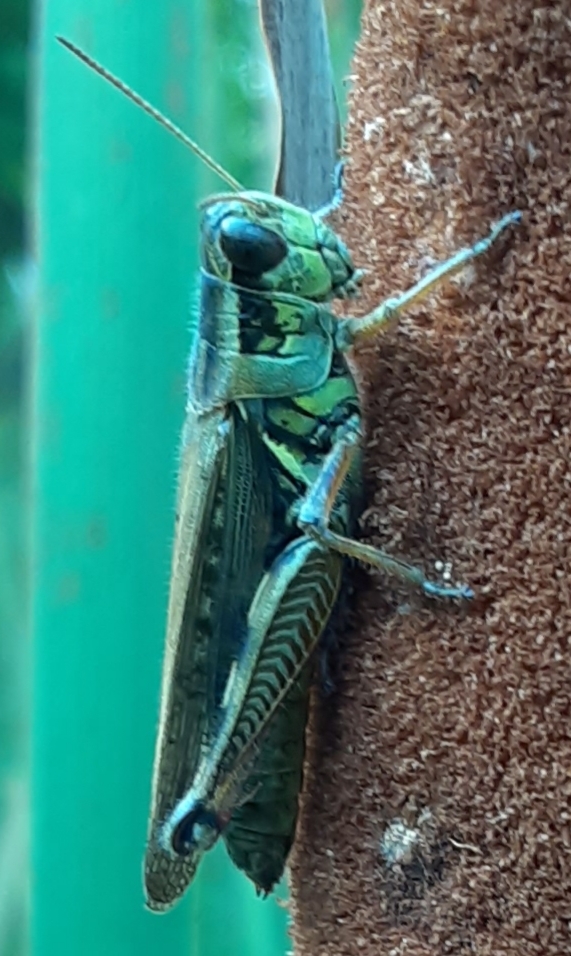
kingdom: Animalia
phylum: Arthropoda
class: Insecta
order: Orthoptera
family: Acrididae
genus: Melanoplus
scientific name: Melanoplus femurrubrum
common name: Red-legged grasshopper
